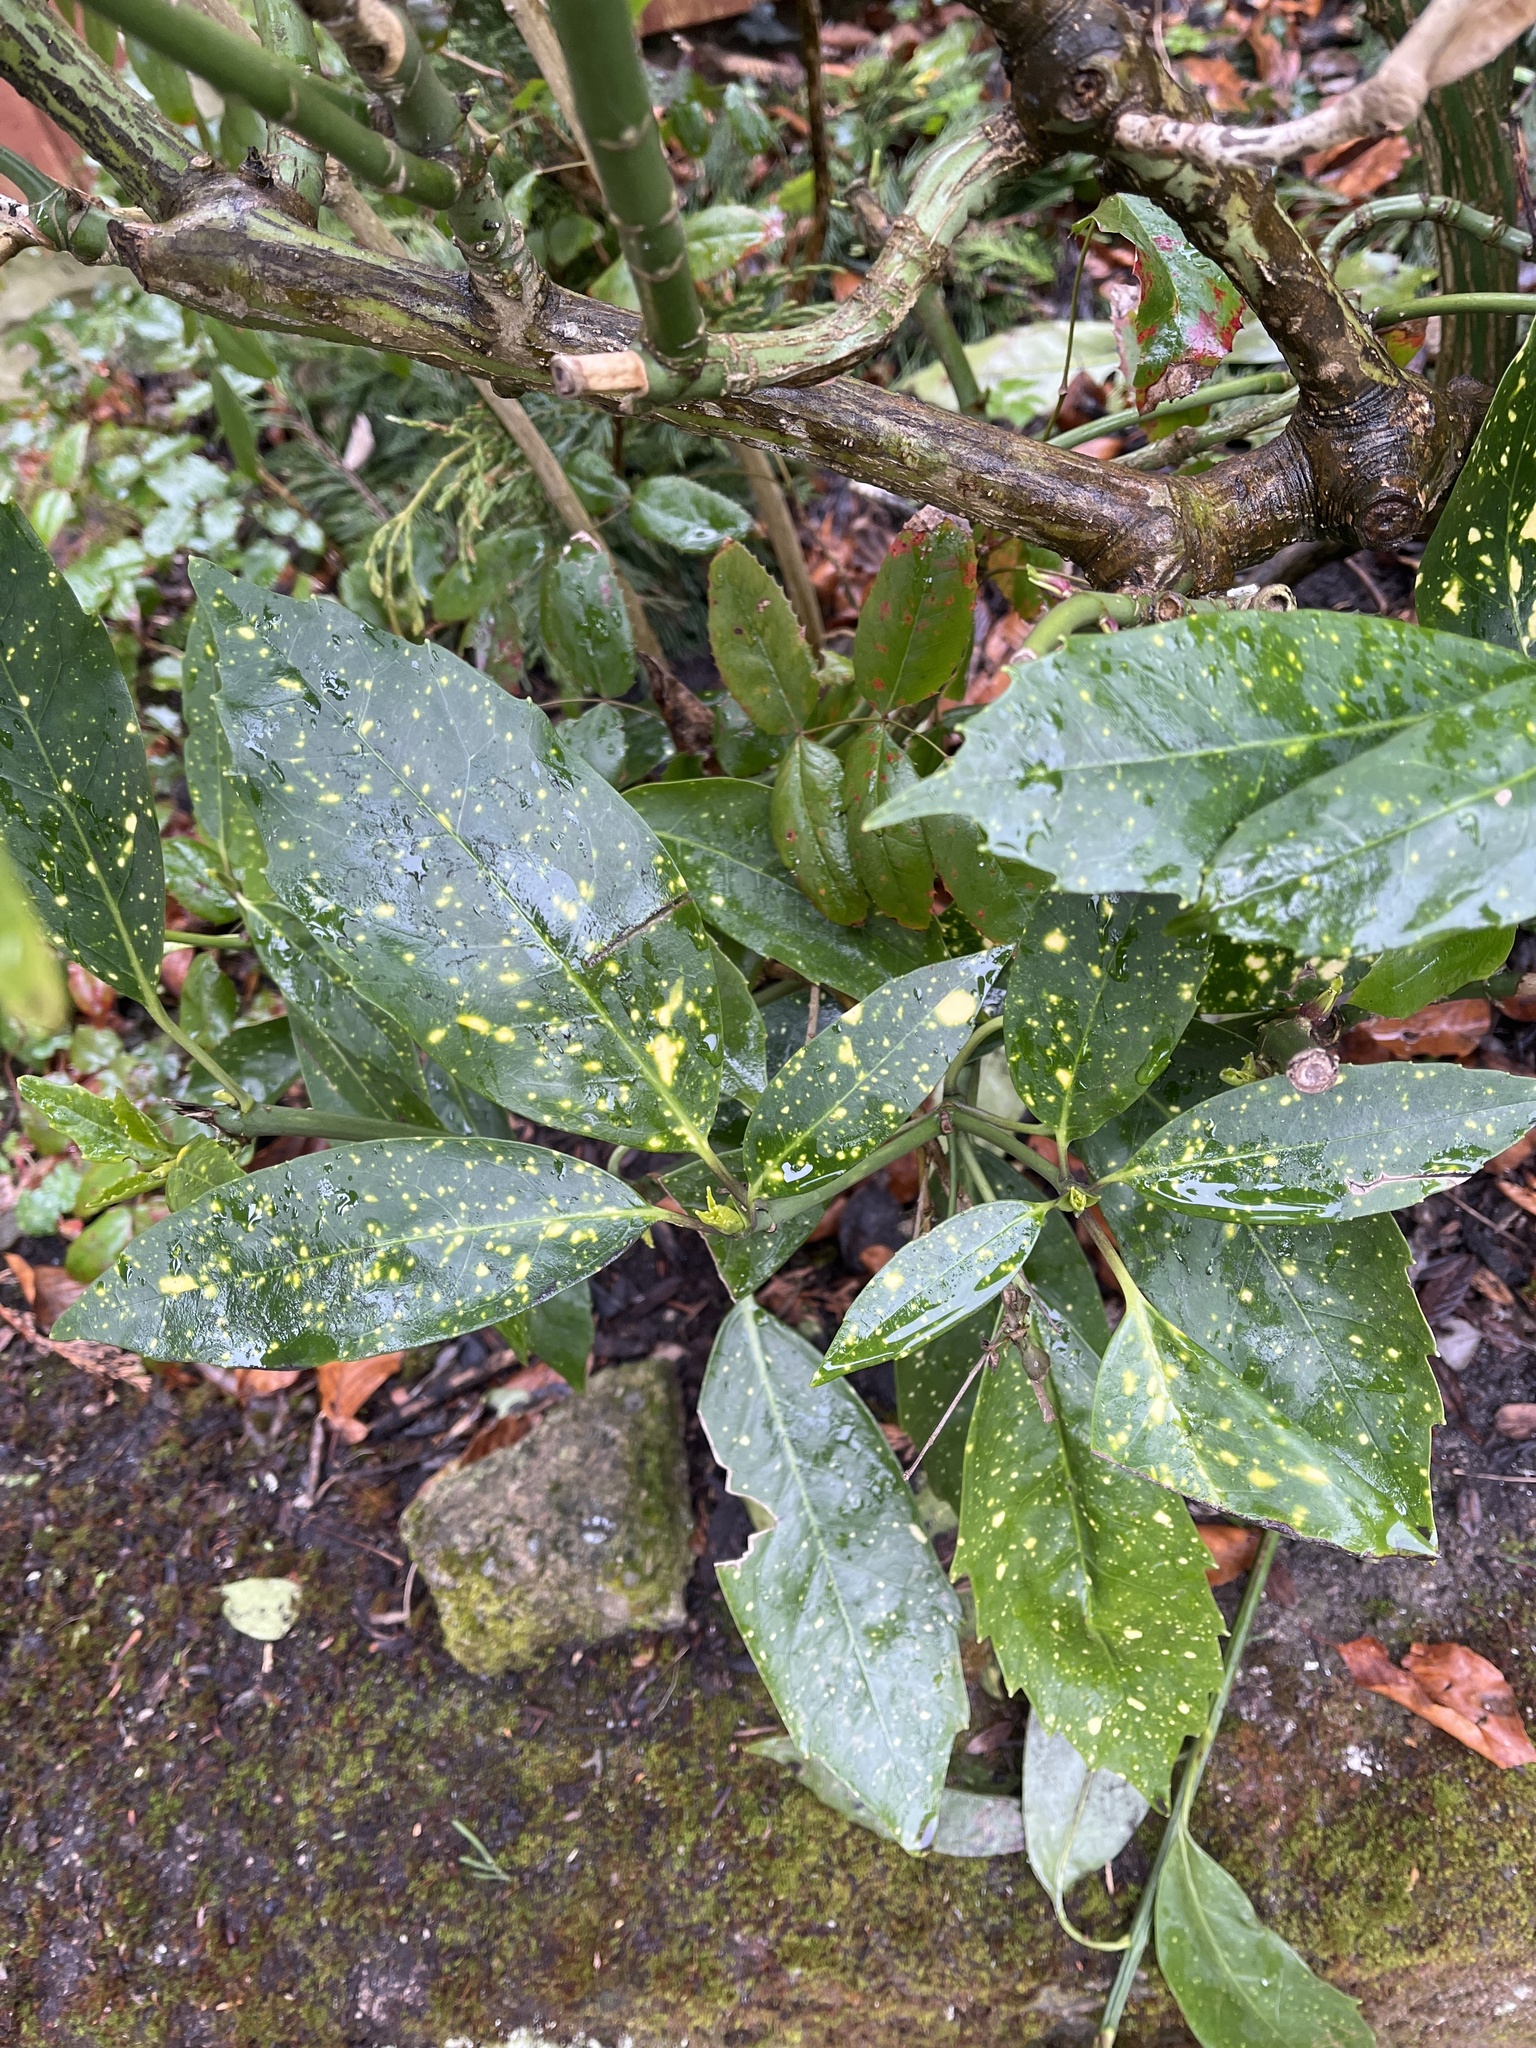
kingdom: Plantae
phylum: Tracheophyta
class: Magnoliopsida
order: Garryales
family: Garryaceae
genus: Aucuba
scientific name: Aucuba japonica
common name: Spotted-laurel
